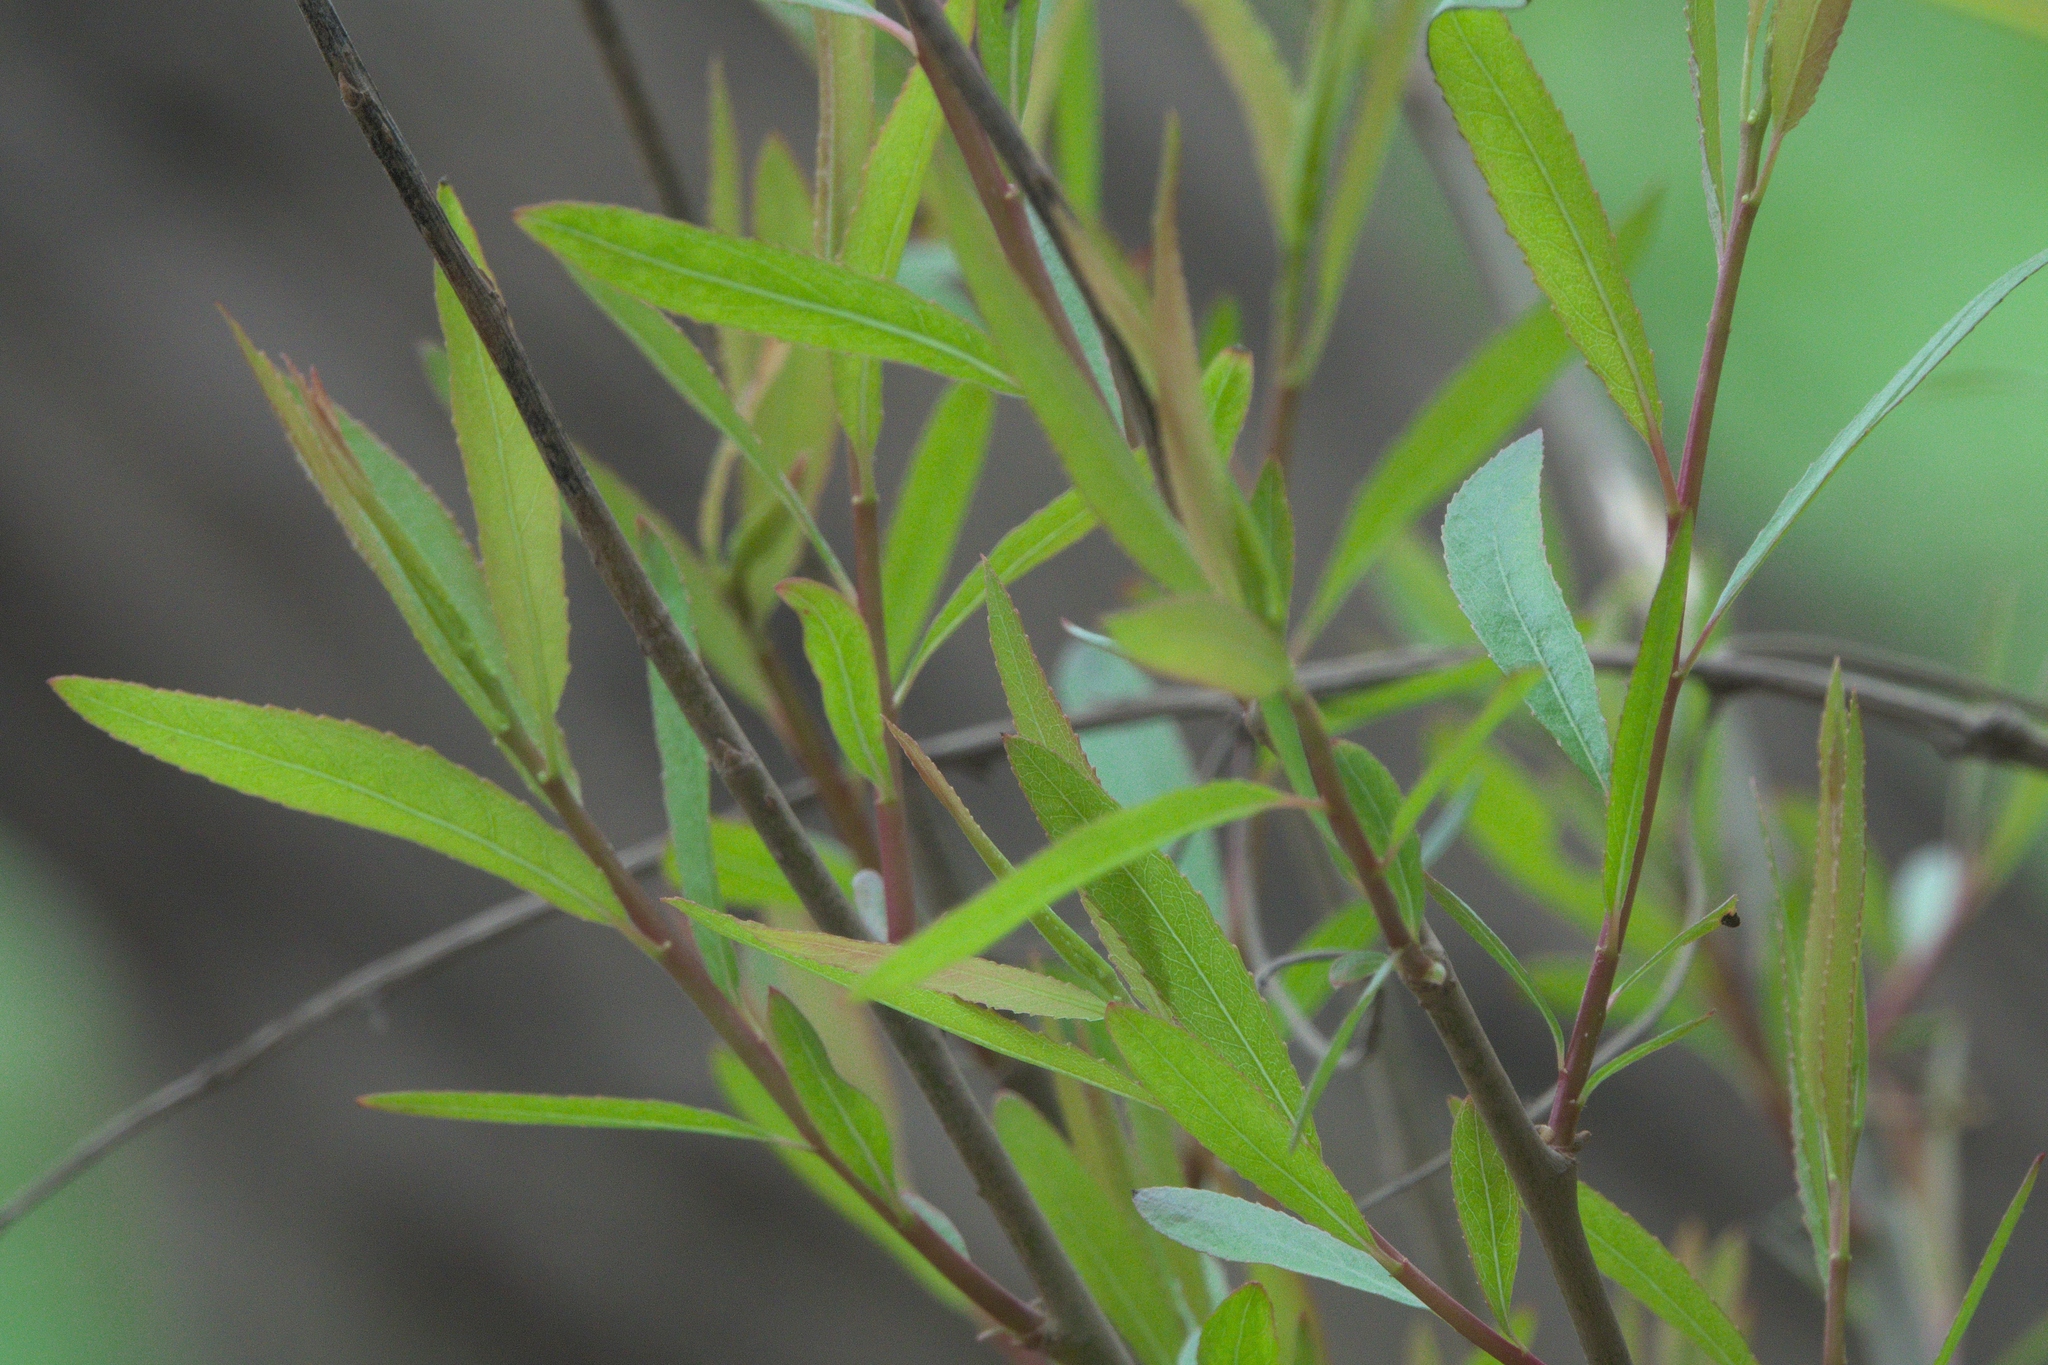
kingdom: Plantae
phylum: Tracheophyta
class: Magnoliopsida
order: Malpighiales
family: Salicaceae
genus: Salix
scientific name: Salix nigra
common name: Black willow
